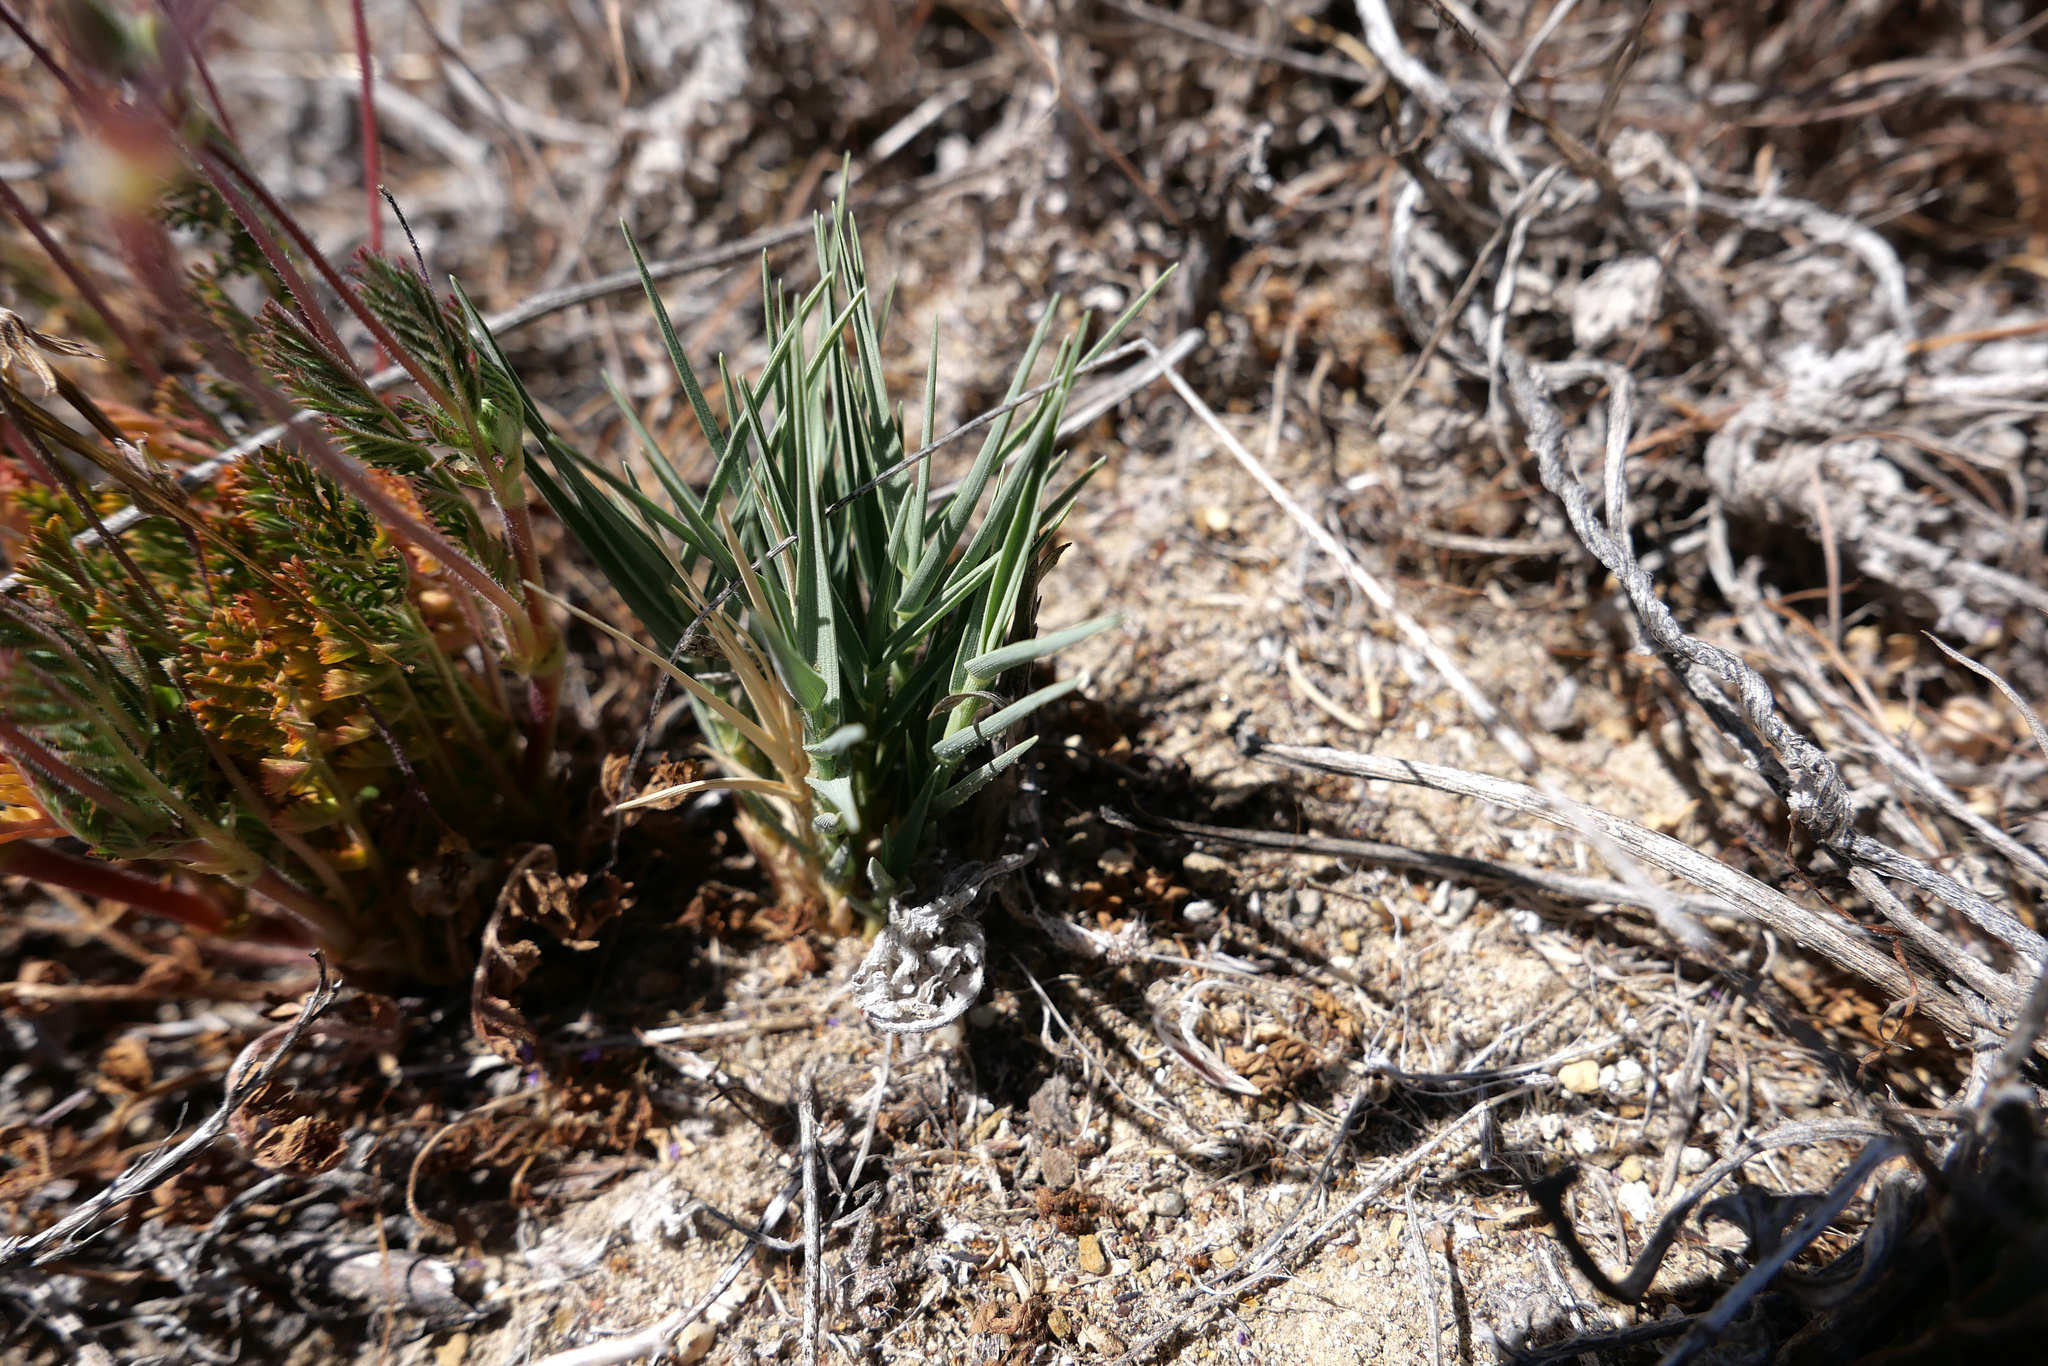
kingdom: Plantae
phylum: Tracheophyta
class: Liliopsida
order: Poales
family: Poaceae
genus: Distichlis
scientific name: Distichlis spicata
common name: Saltgrass
